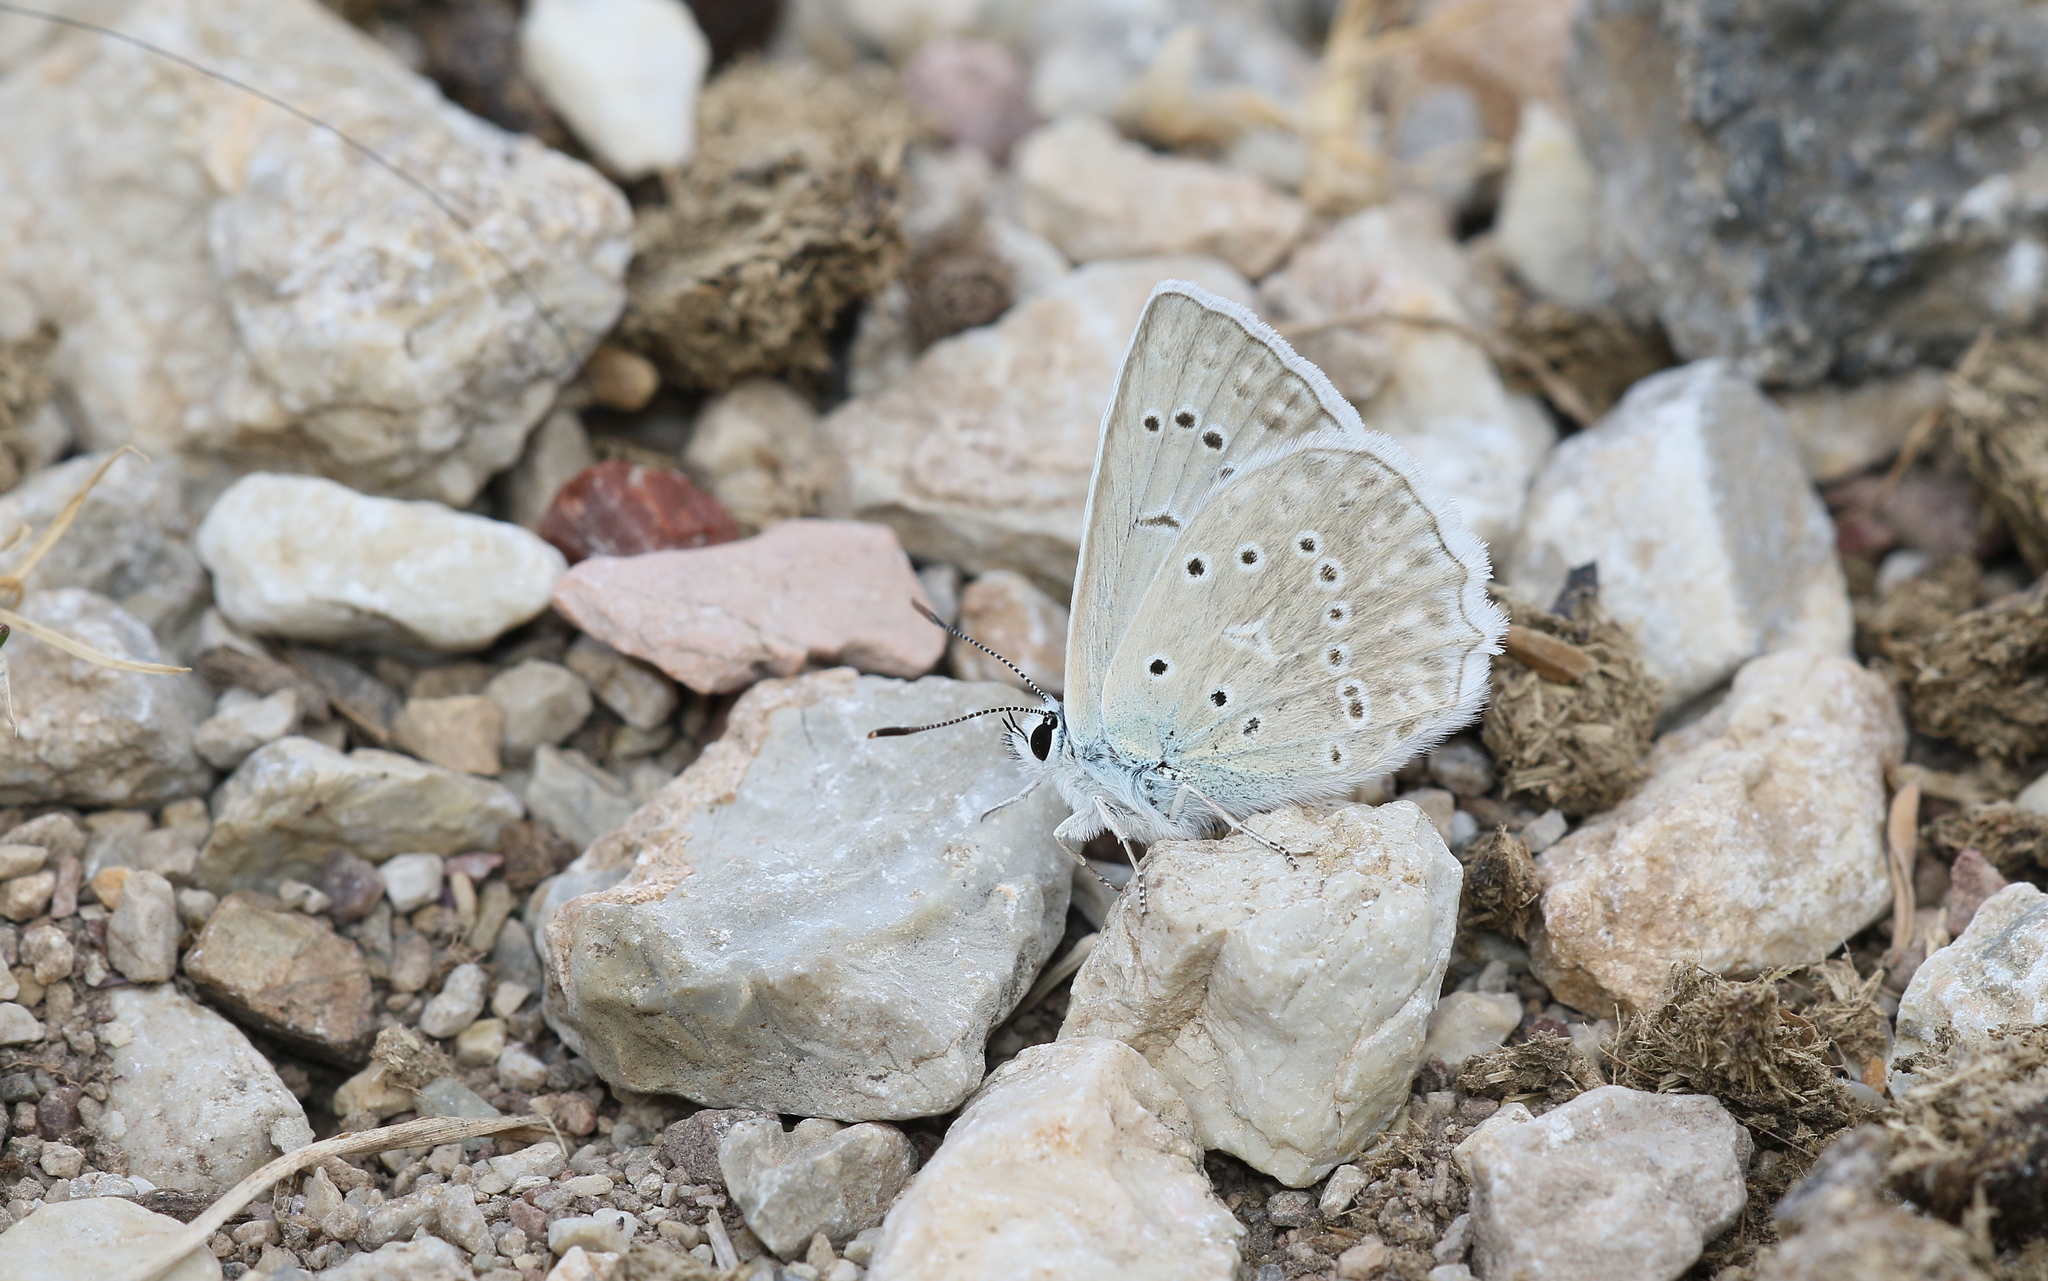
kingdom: Animalia
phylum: Arthropoda
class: Insecta
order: Lepidoptera
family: Lycaenidae
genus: Polyommatus
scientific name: Polyommatus daphnis
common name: Meleager's blue
